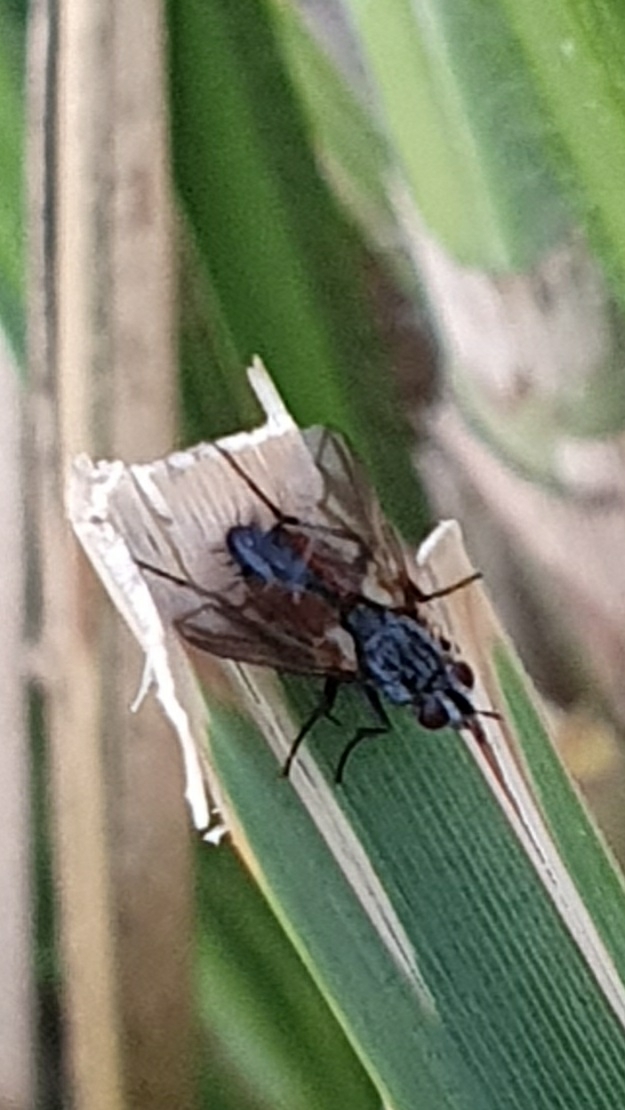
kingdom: Animalia
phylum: Arthropoda
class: Insecta
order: Diptera
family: Tachinidae
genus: Eriothrix
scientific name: Eriothrix rufomaculatus
